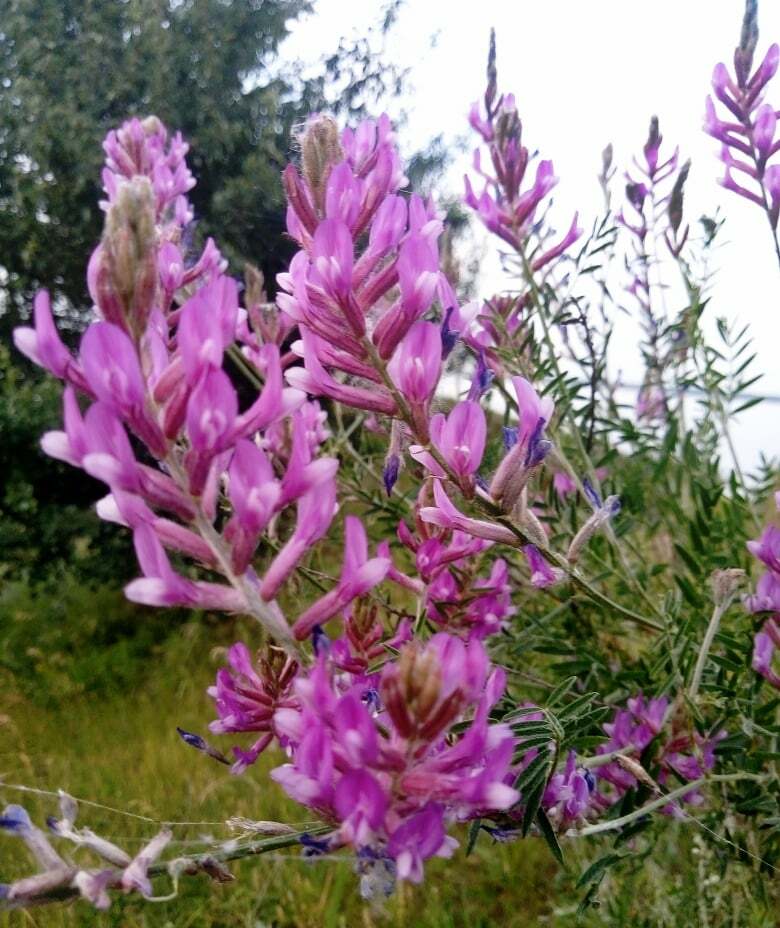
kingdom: Plantae
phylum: Tracheophyta
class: Magnoliopsida
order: Fabales
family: Fabaceae
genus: Astragalus
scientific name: Astragalus varius
